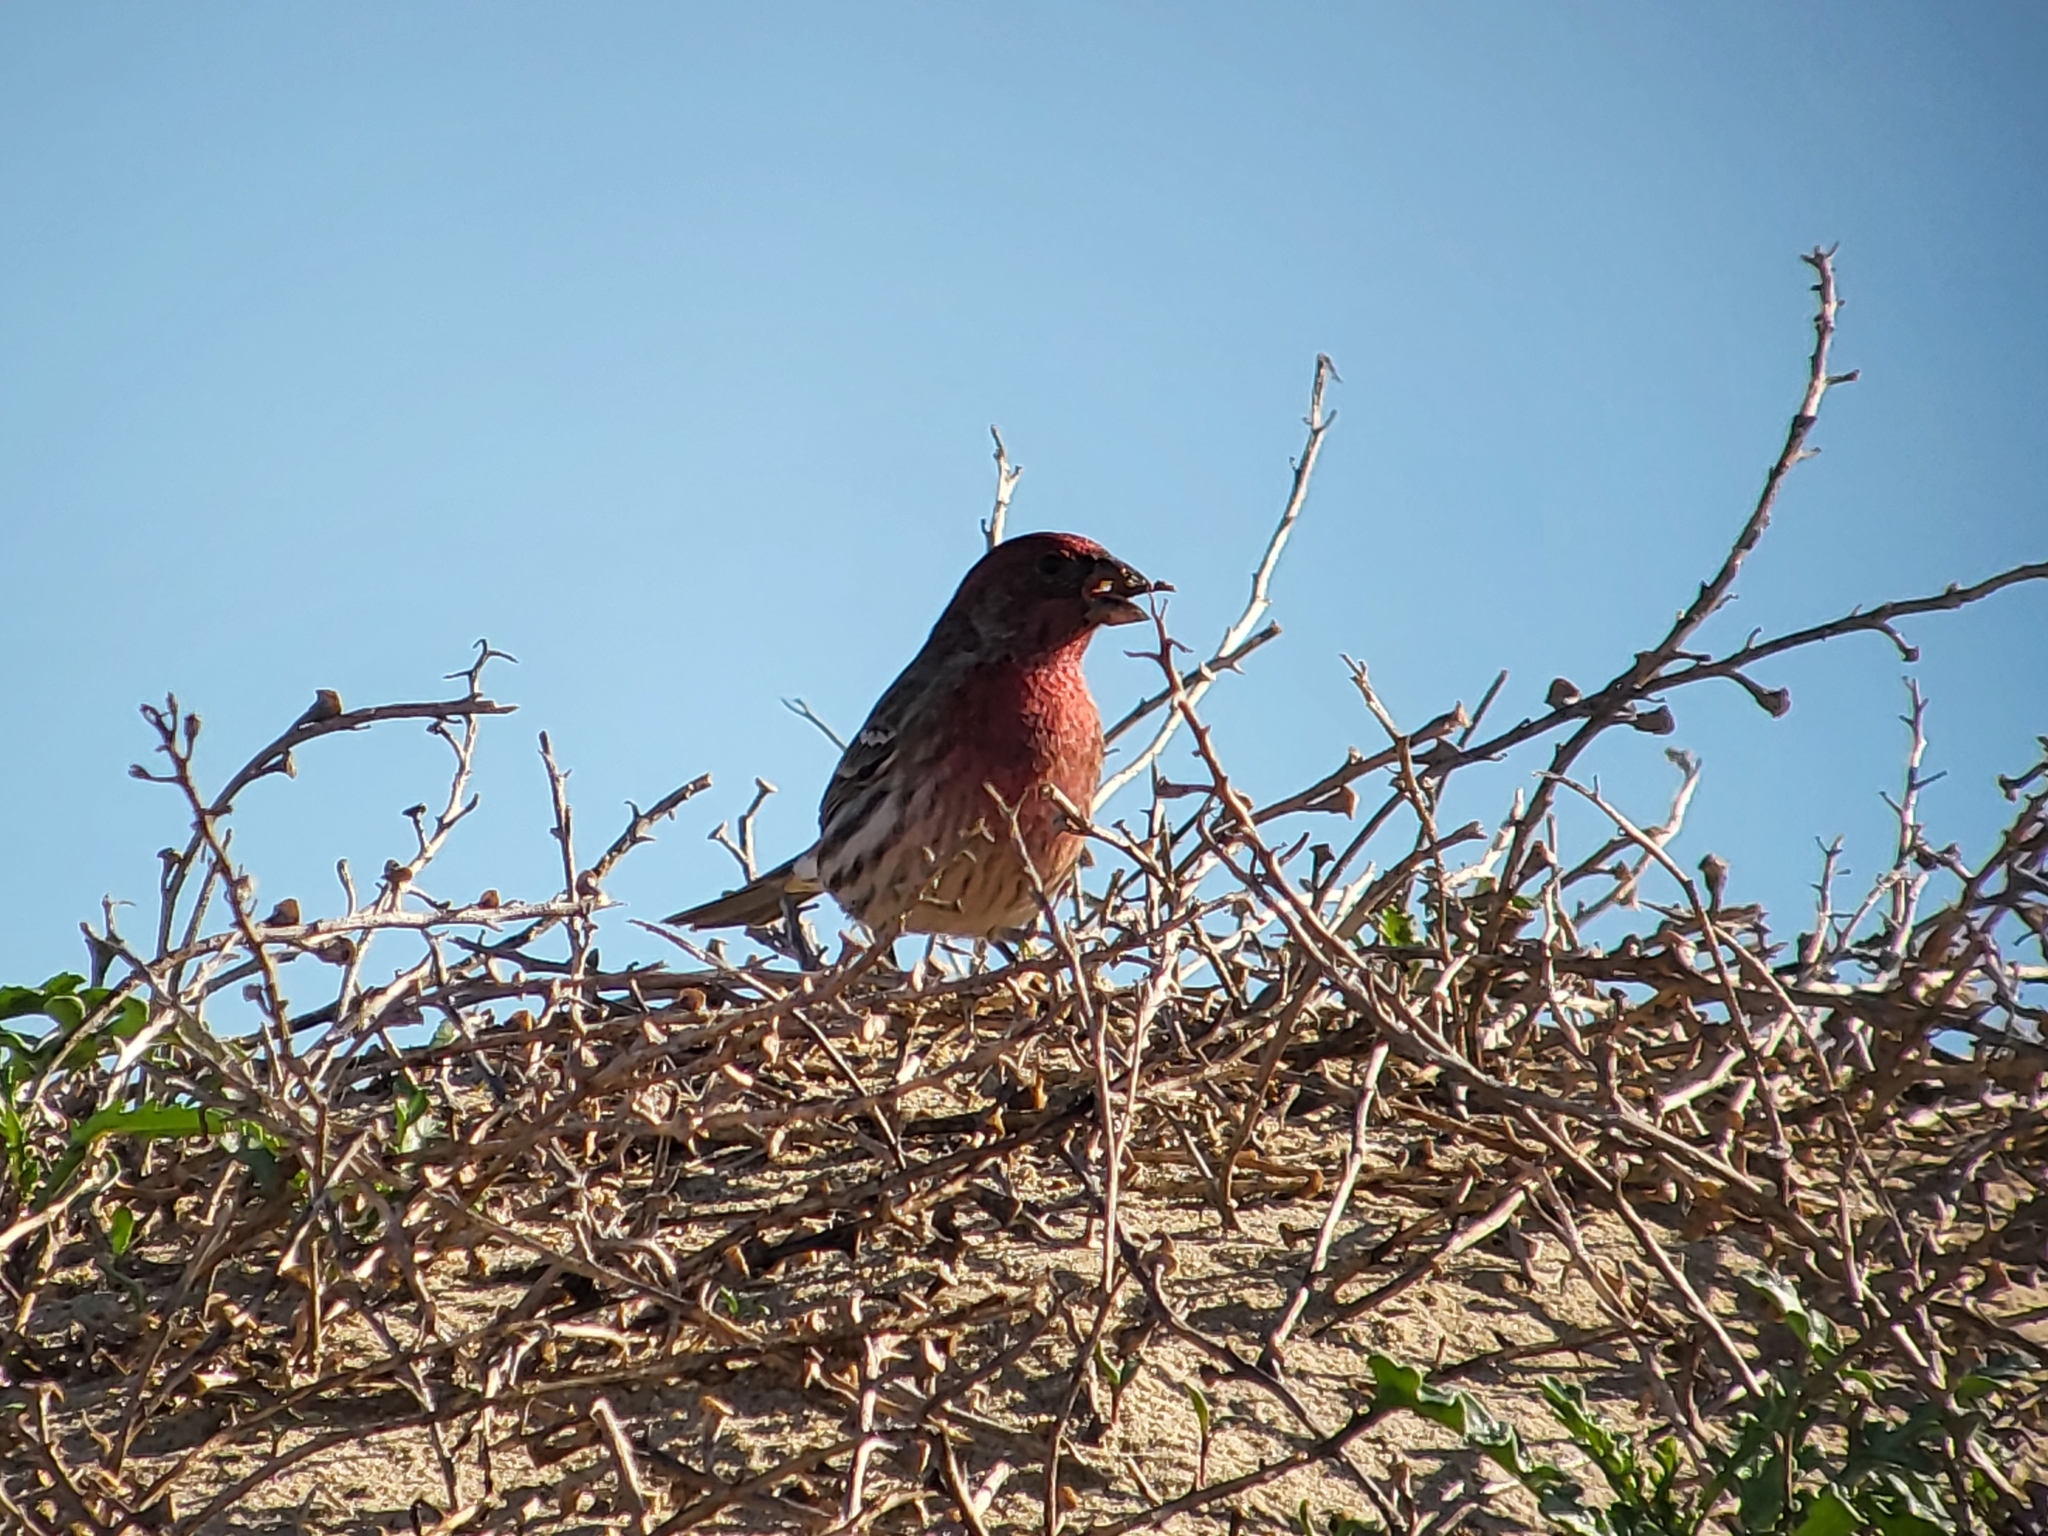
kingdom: Animalia
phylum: Chordata
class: Aves
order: Passeriformes
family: Fringillidae
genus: Haemorhous
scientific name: Haemorhous mexicanus
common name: House finch
